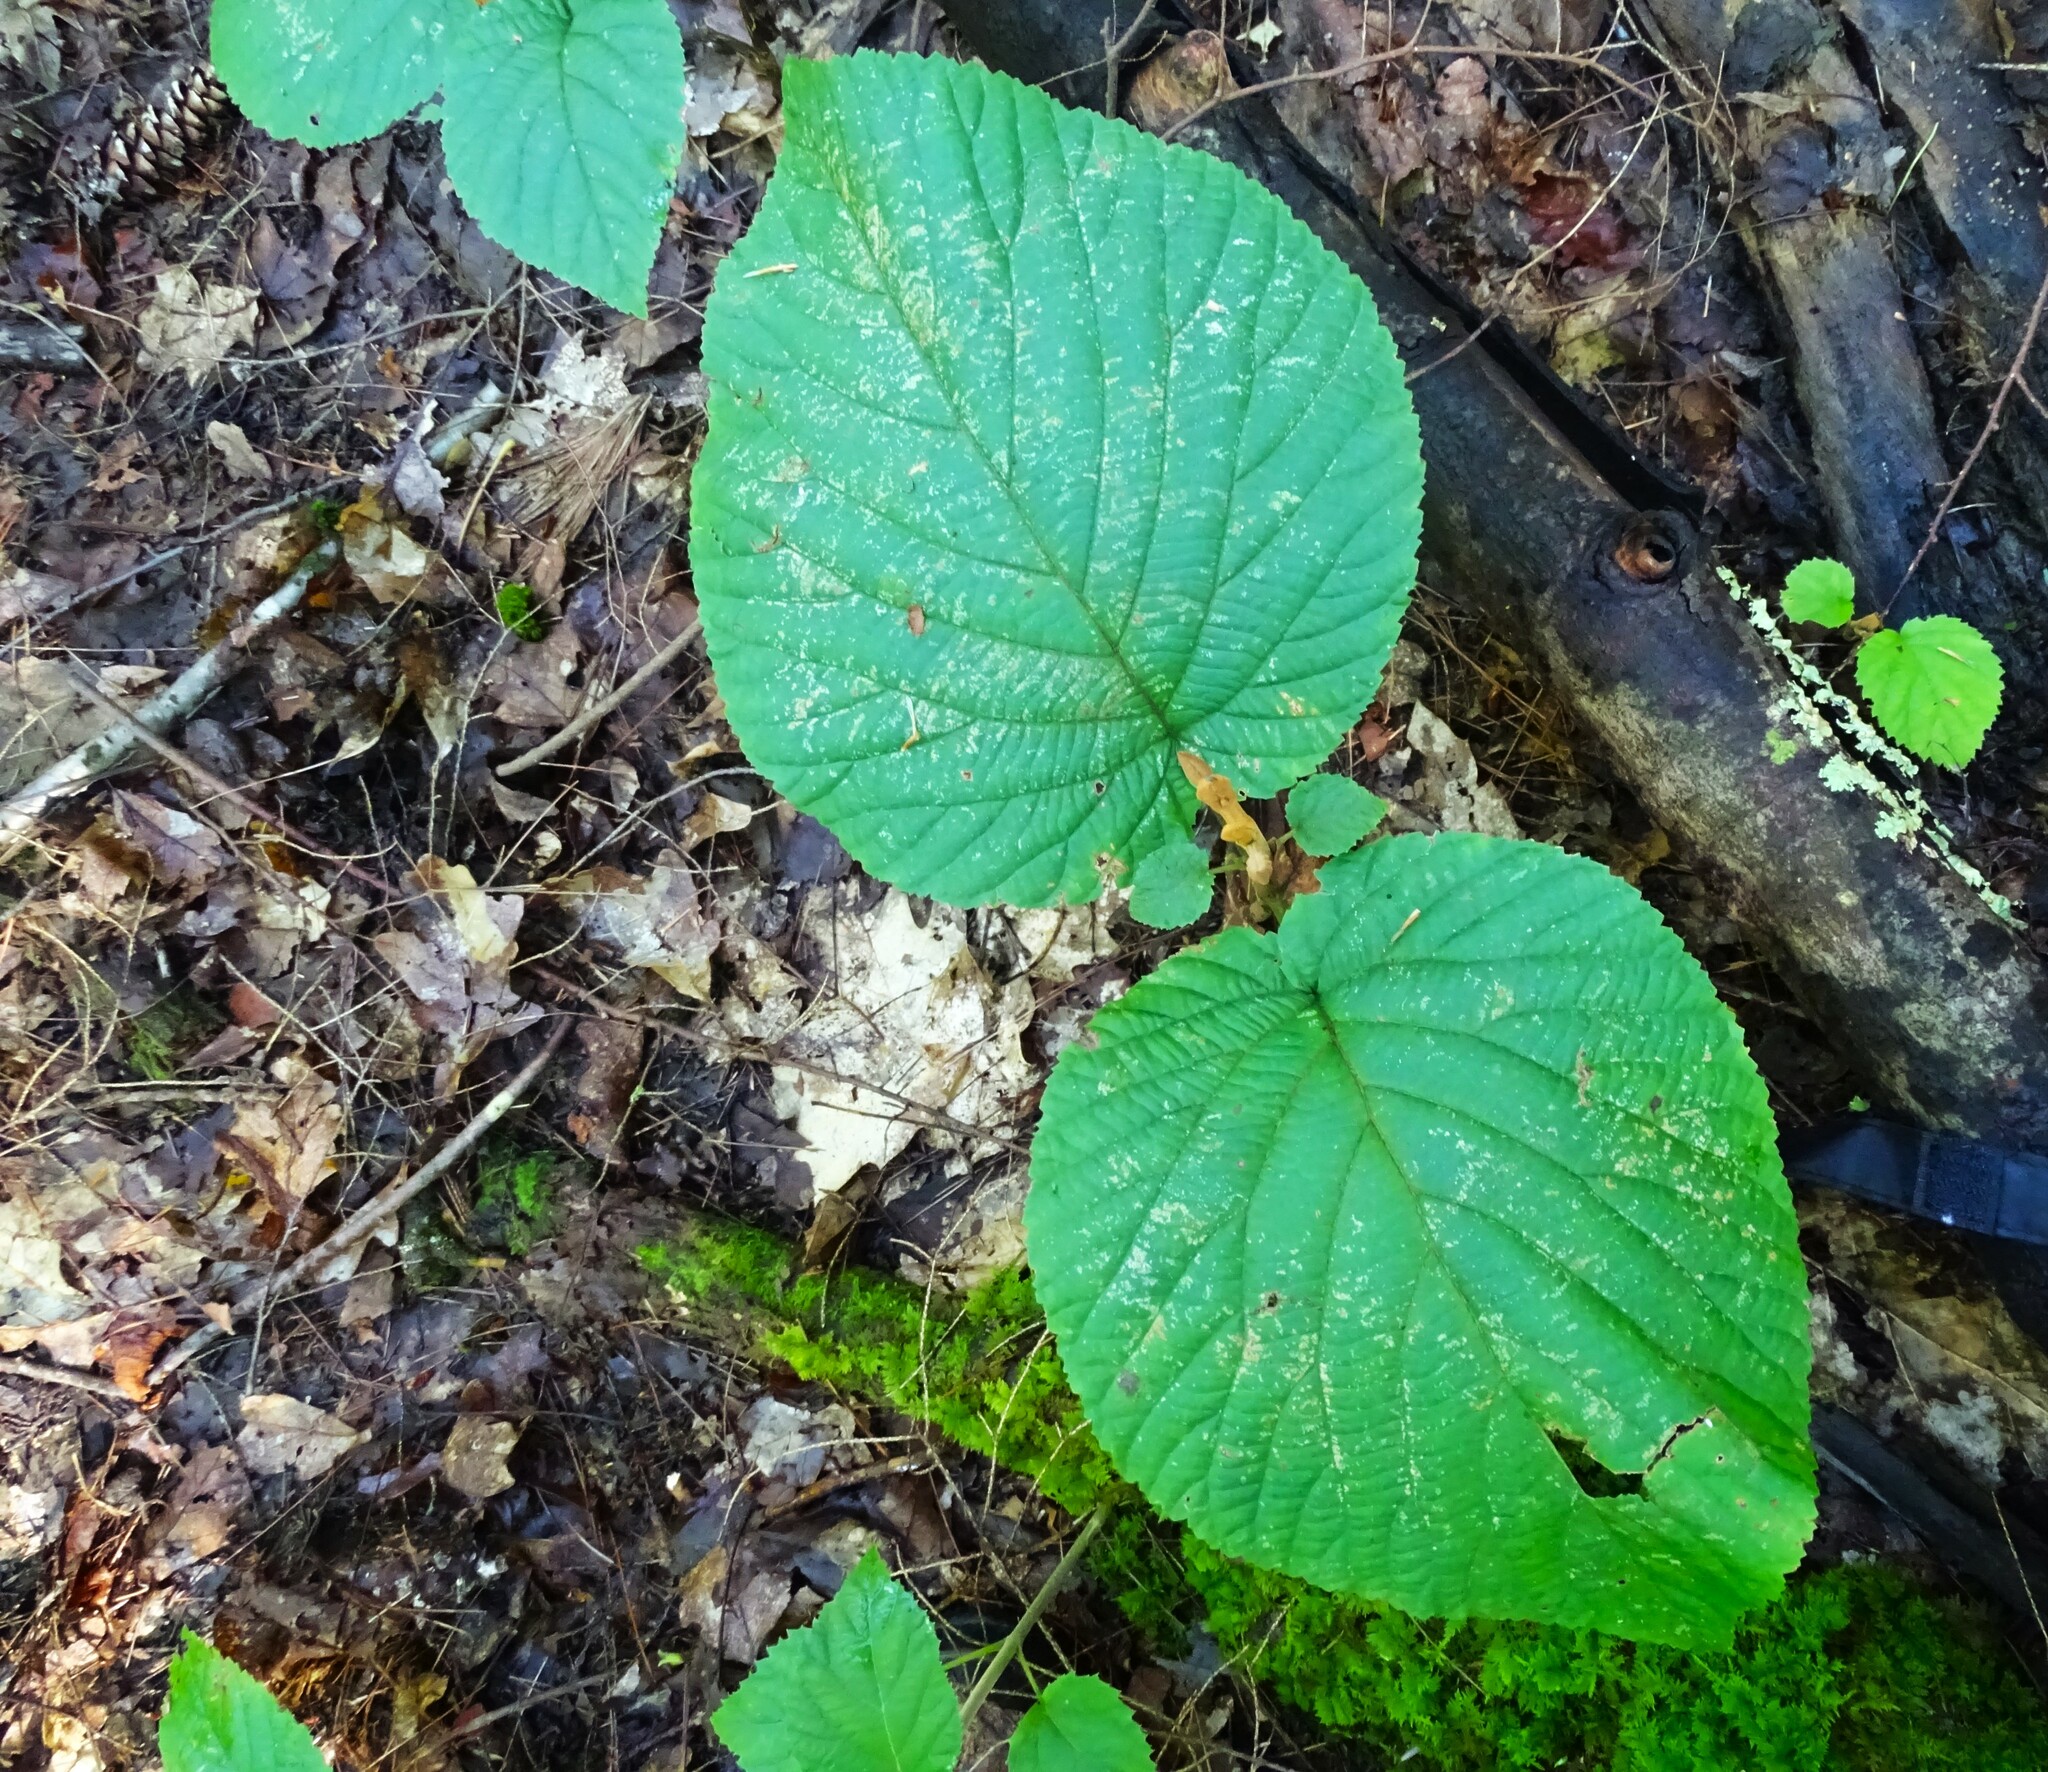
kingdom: Plantae
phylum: Tracheophyta
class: Magnoliopsida
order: Dipsacales
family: Viburnaceae
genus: Viburnum
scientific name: Viburnum lantanoides
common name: Hobblebush
